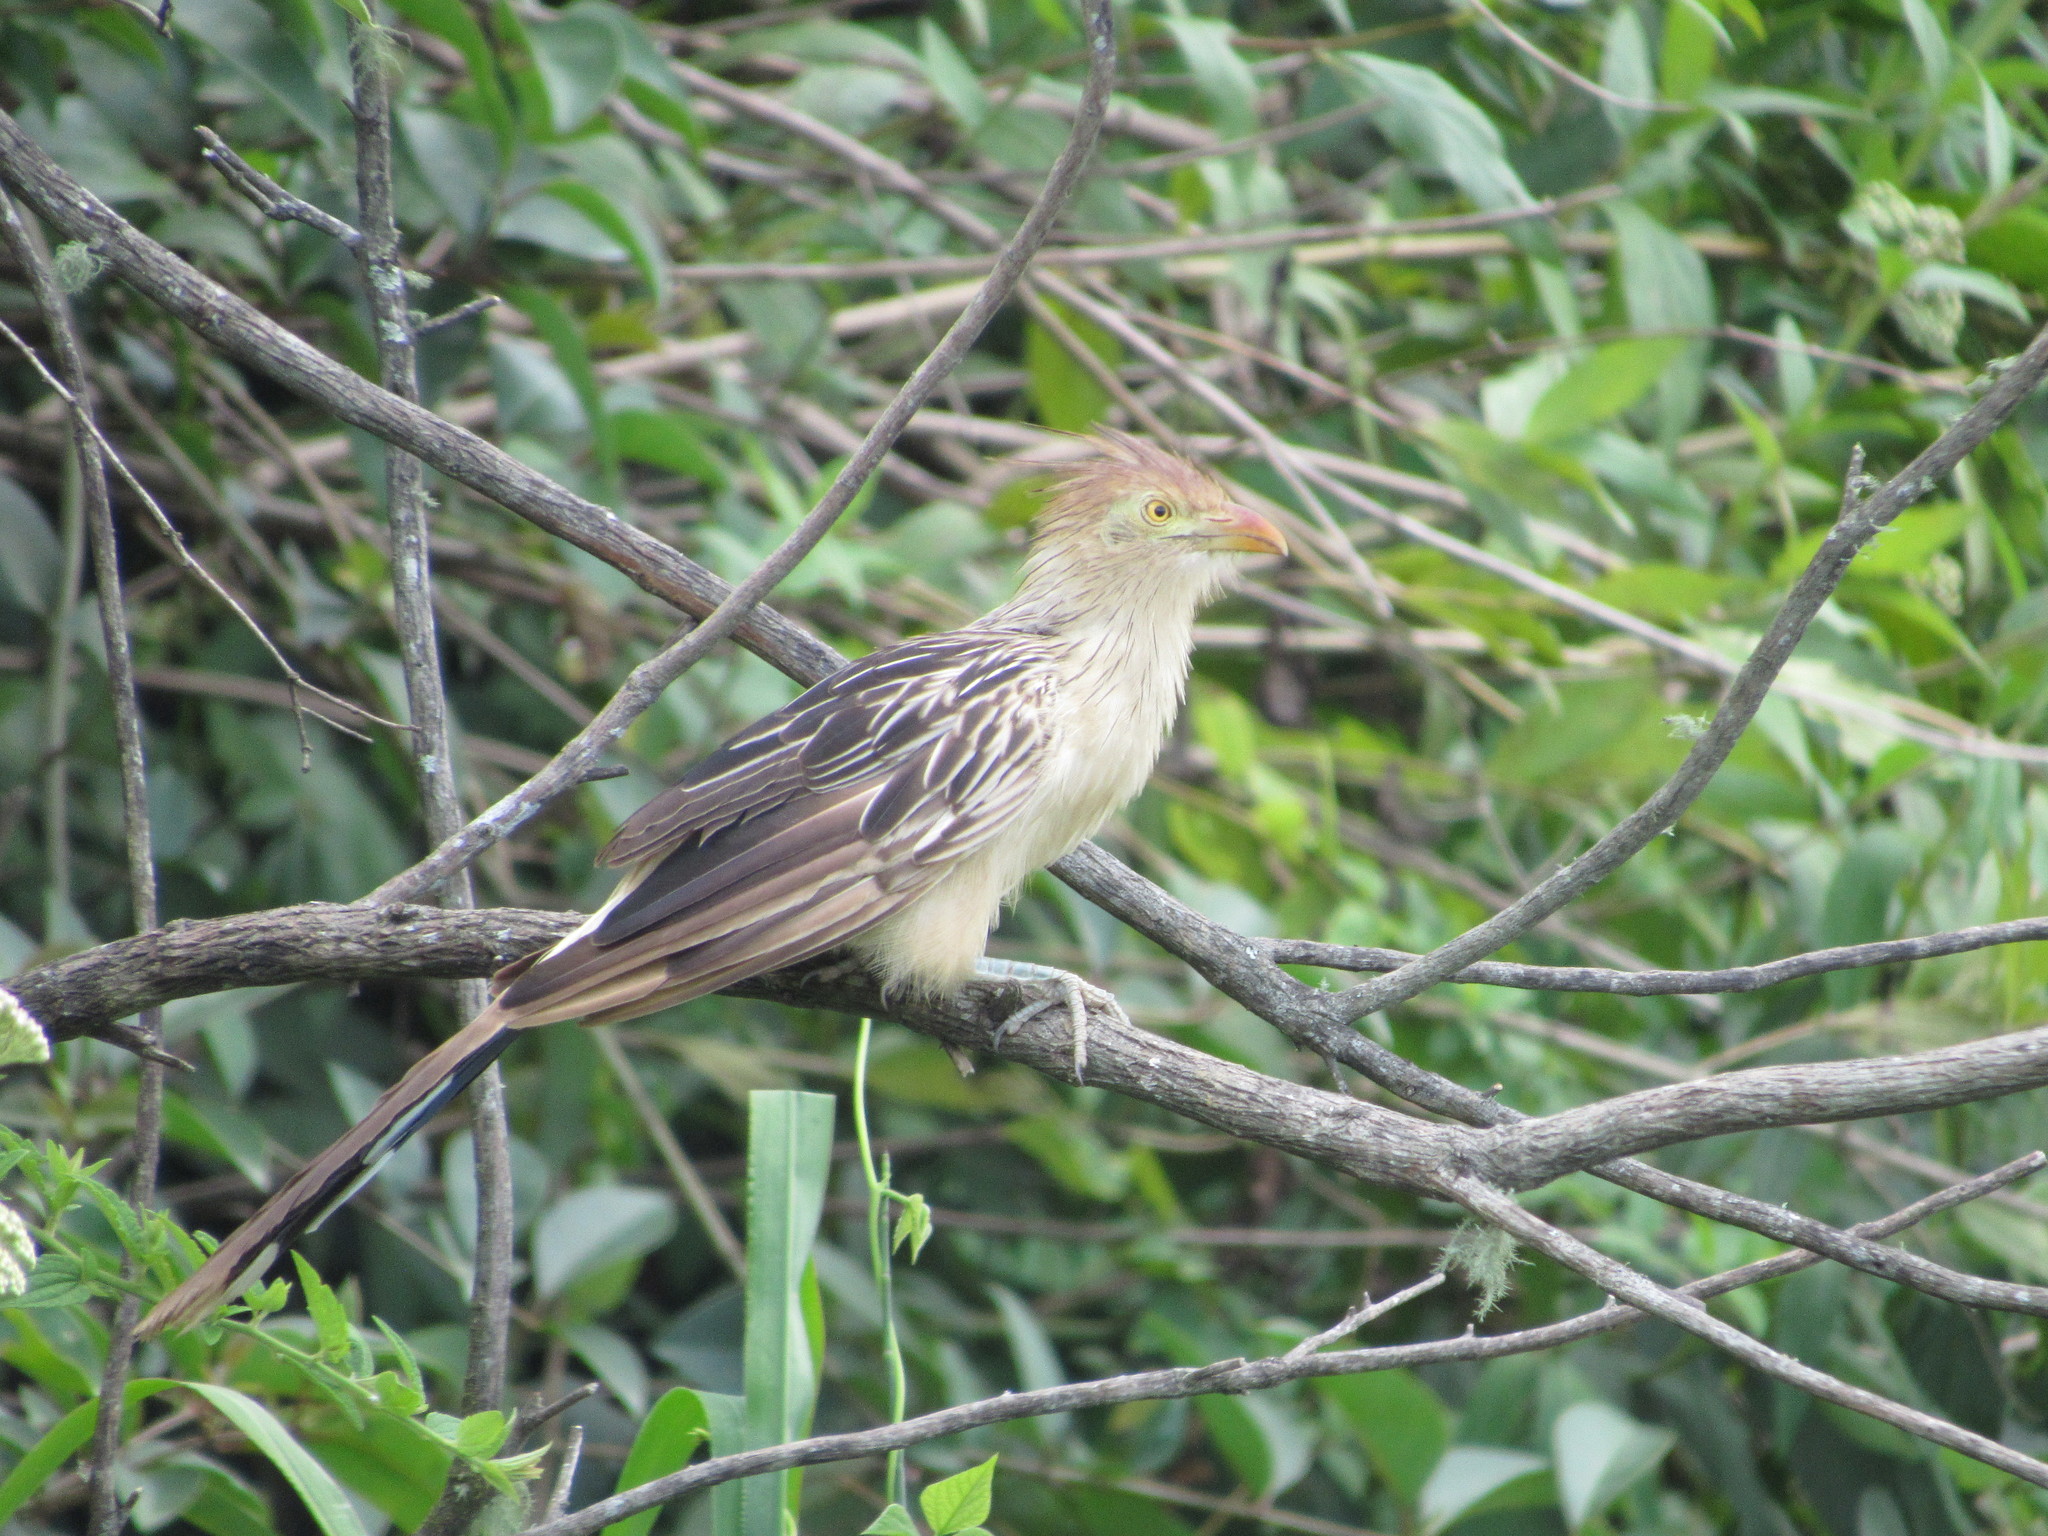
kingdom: Animalia
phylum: Chordata
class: Aves
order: Cuculiformes
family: Cuculidae
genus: Guira
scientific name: Guira guira
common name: Guira cuckoo
